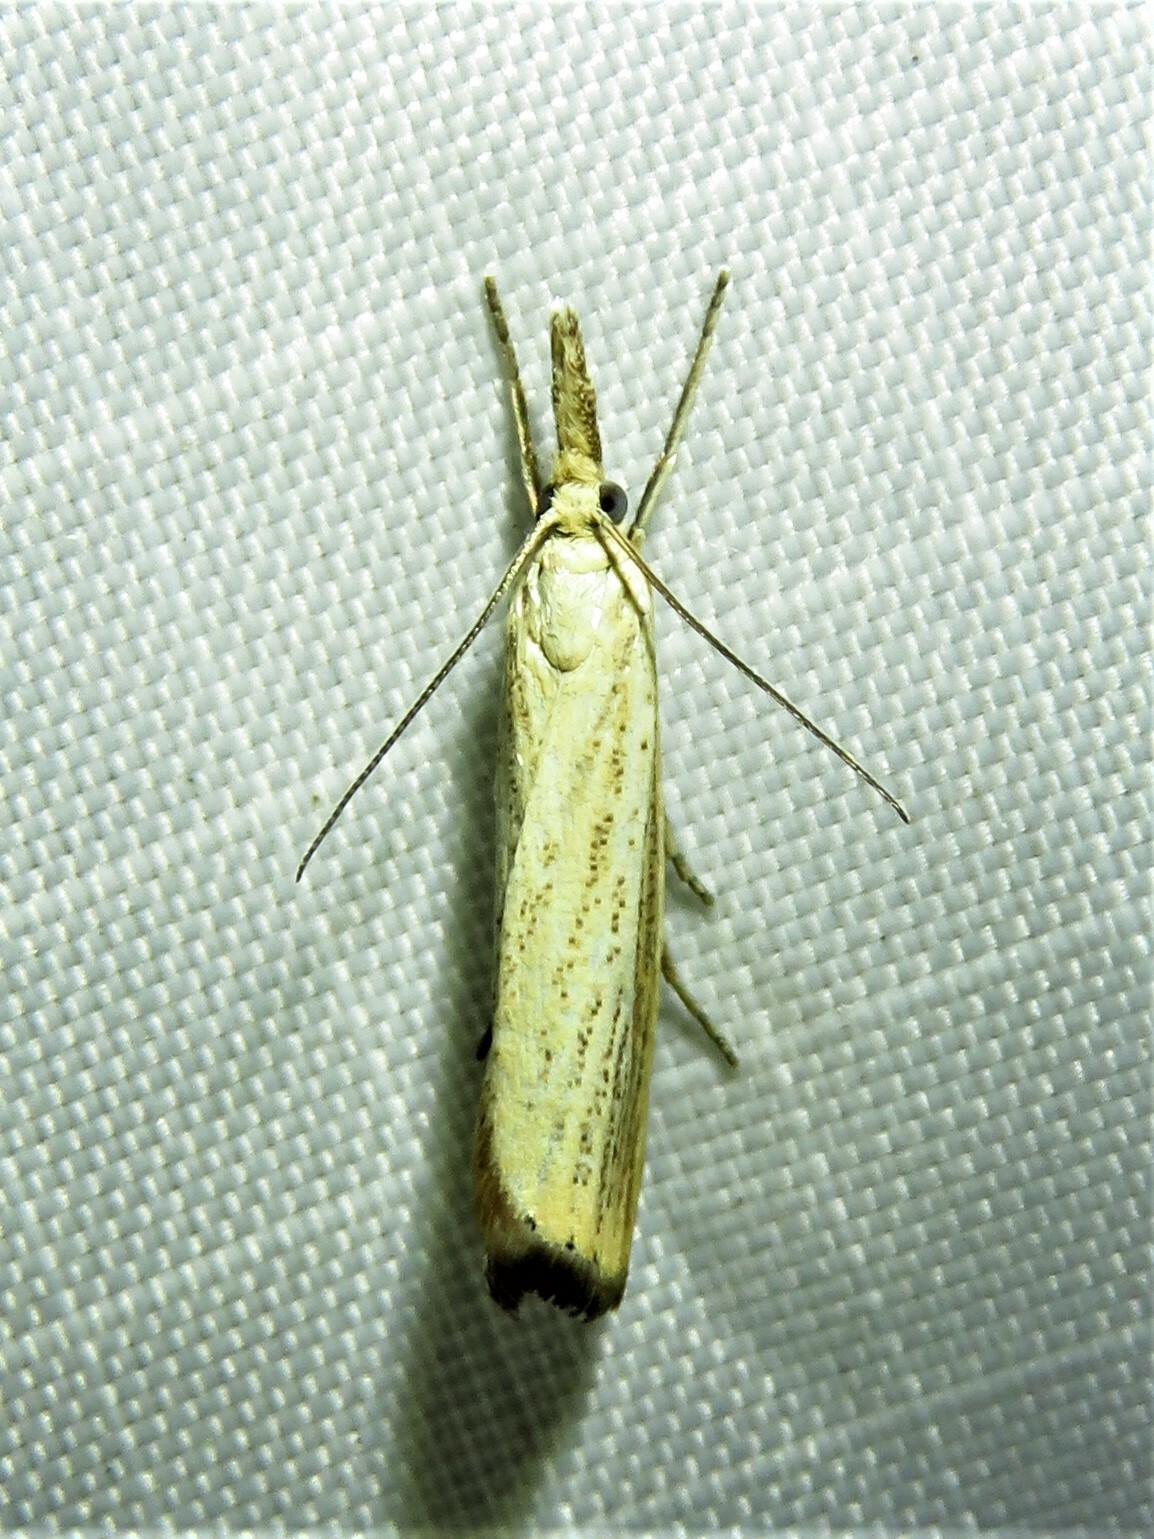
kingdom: Animalia
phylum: Arthropoda
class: Insecta
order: Lepidoptera
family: Crambidae
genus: Agriphila
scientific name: Agriphila straminella
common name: Straw grass-veneer
